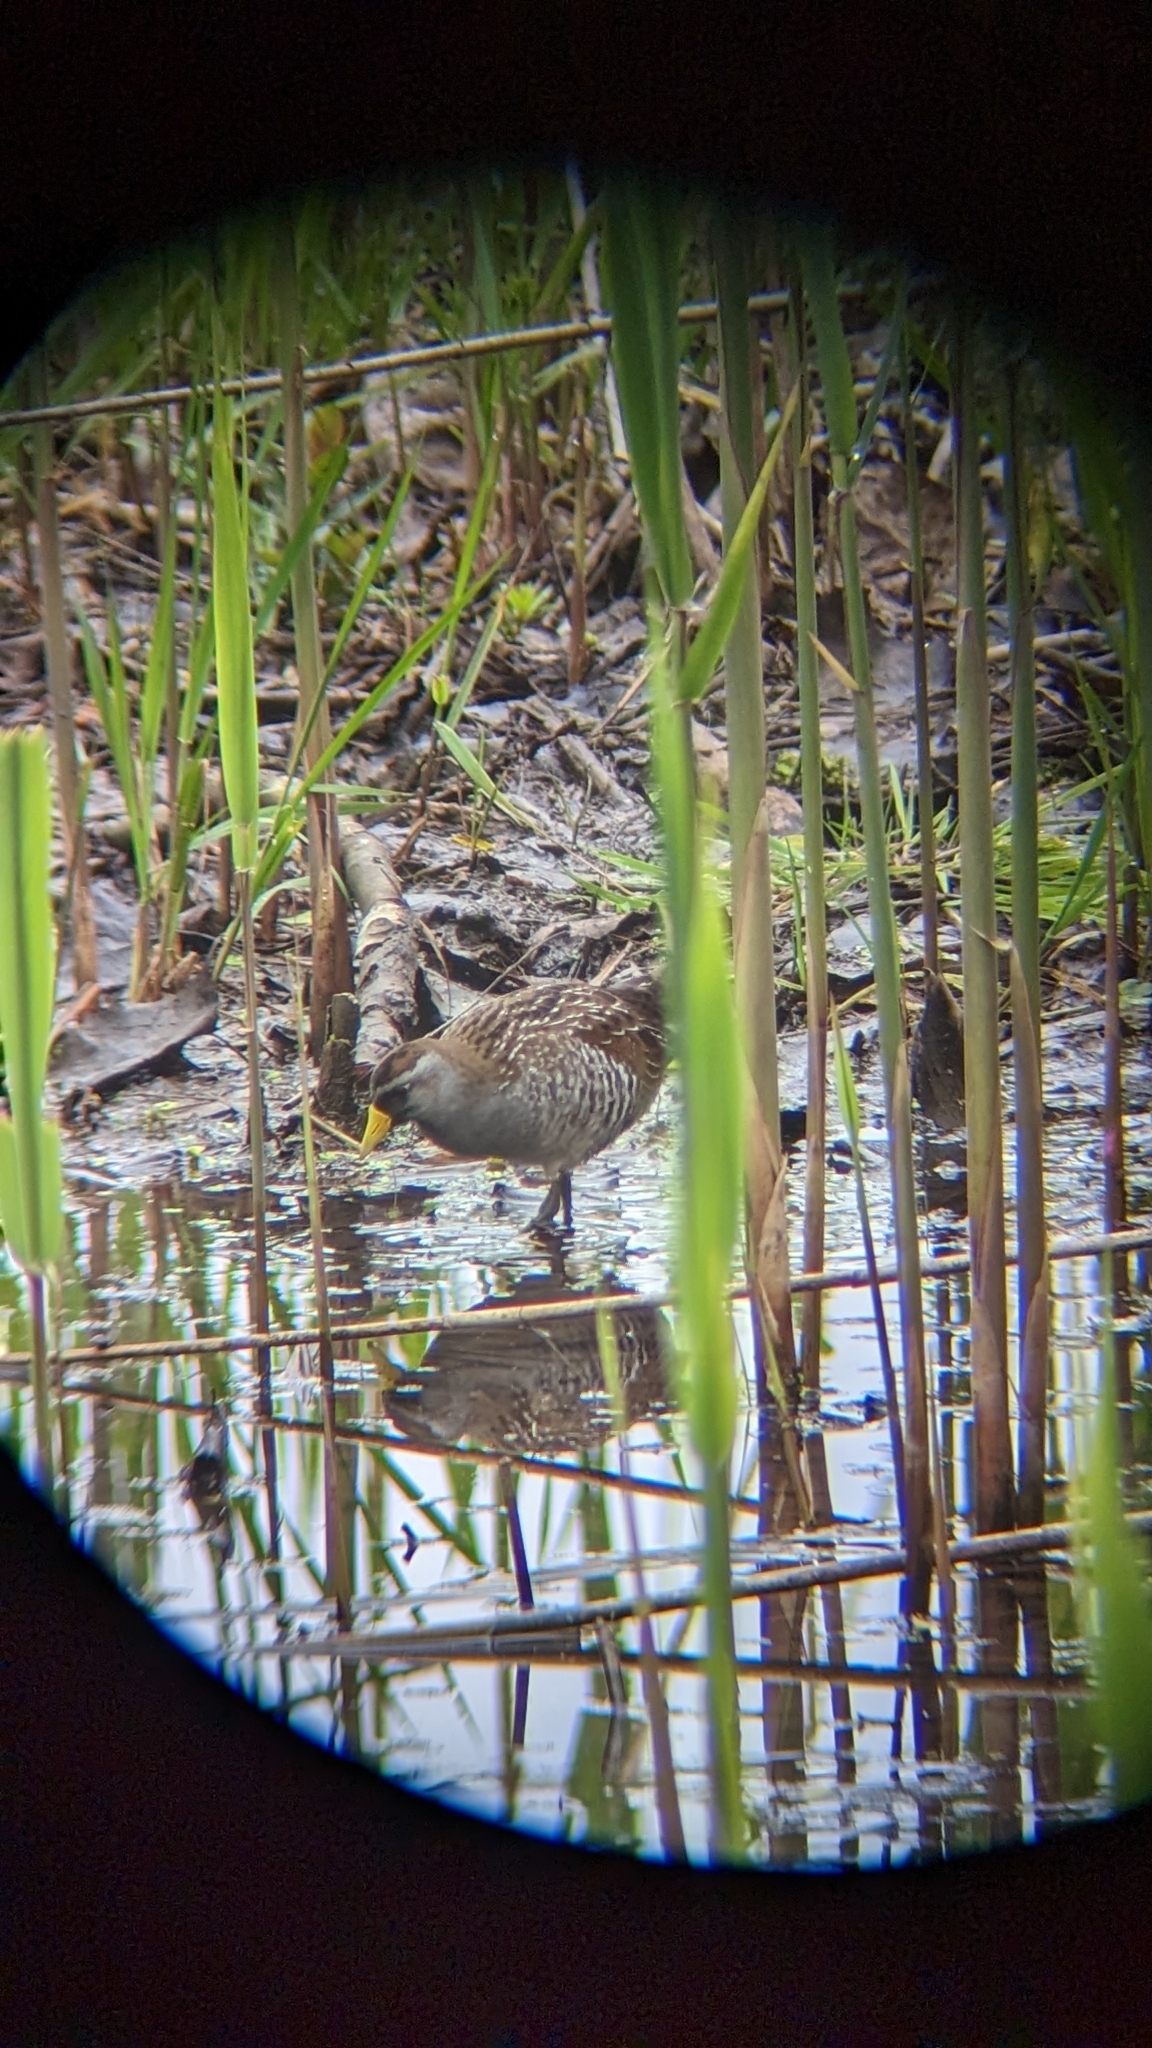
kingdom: Animalia
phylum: Chordata
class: Aves
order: Gruiformes
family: Rallidae
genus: Porzana
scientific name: Porzana carolina
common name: Sora
